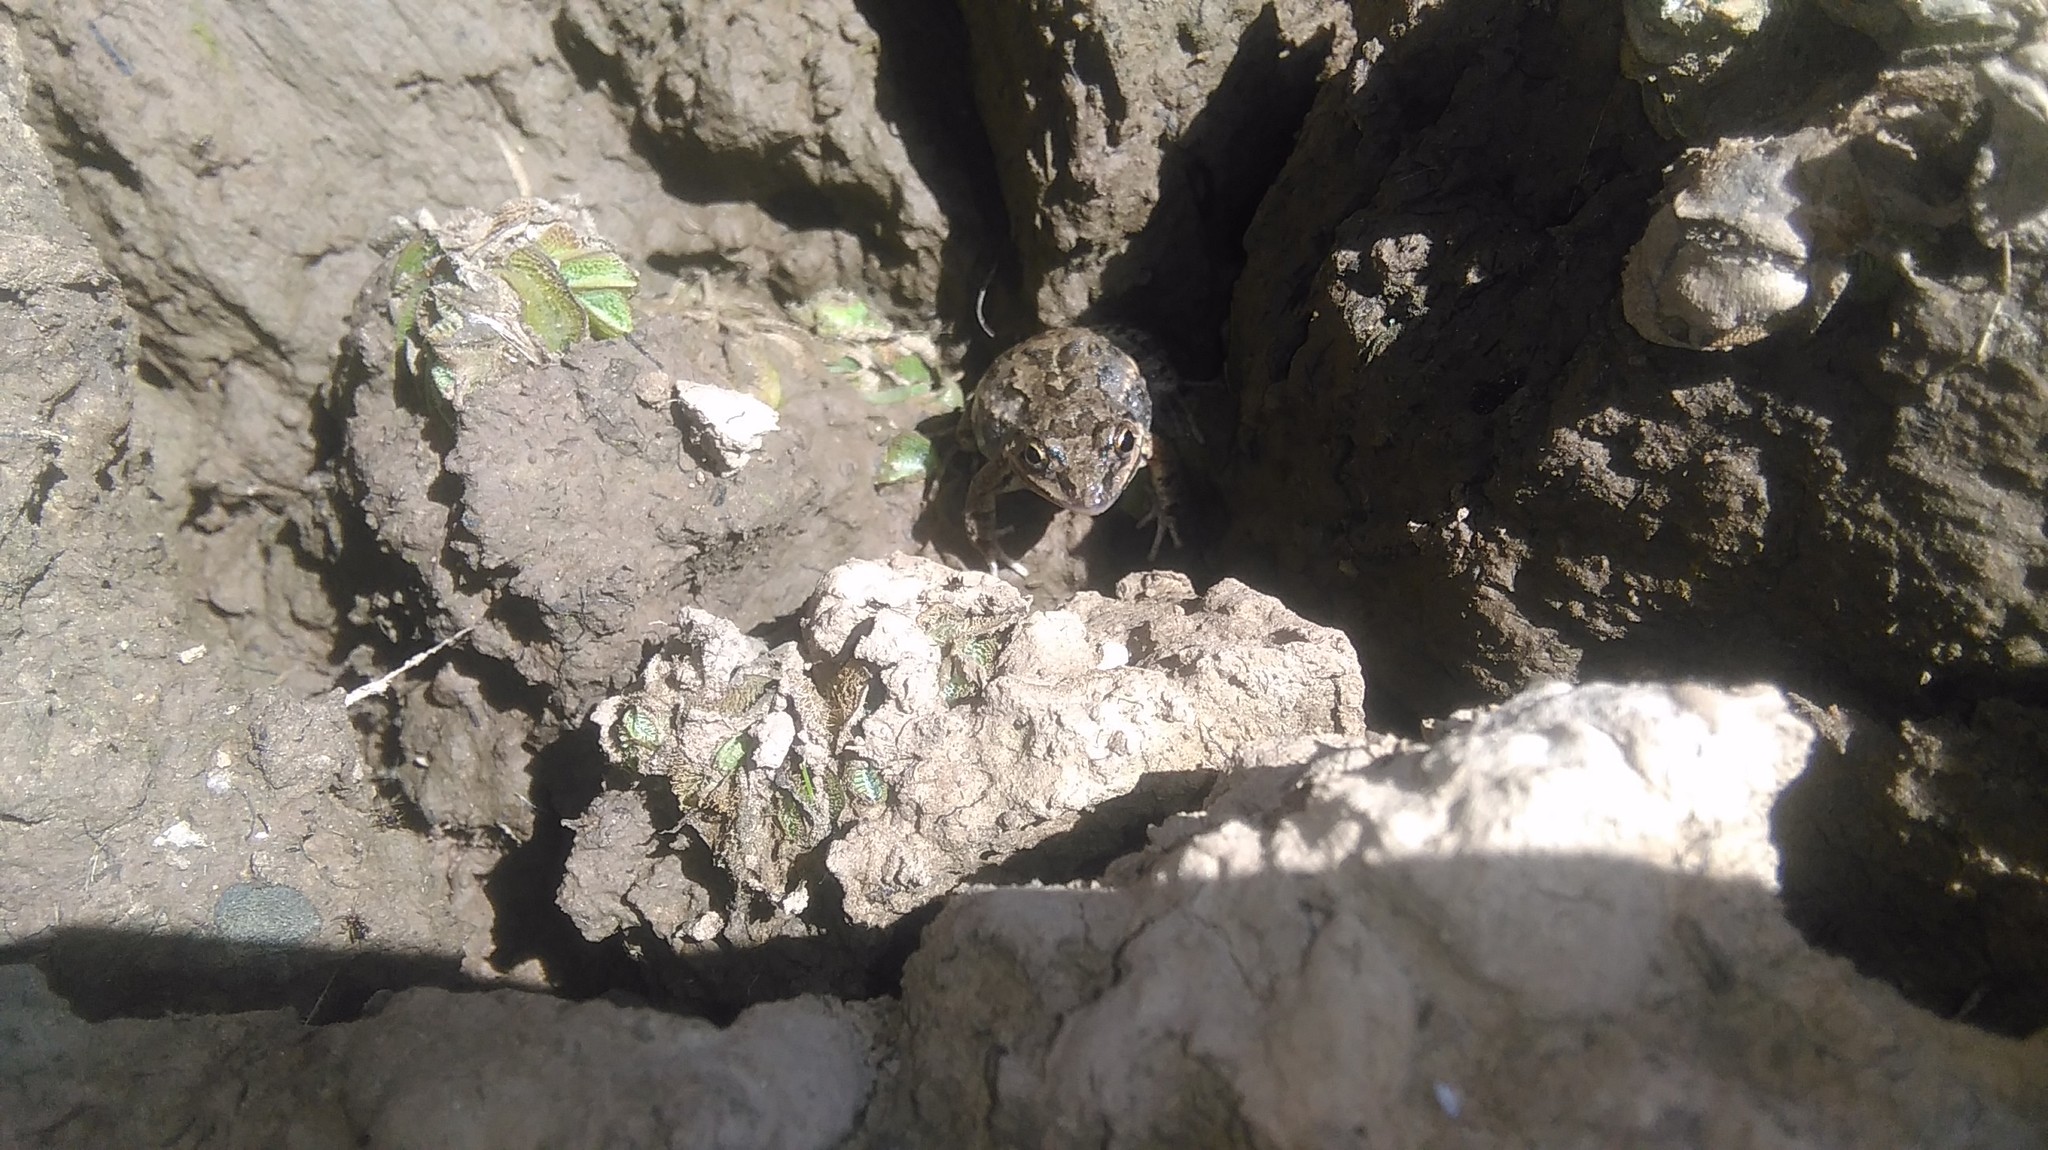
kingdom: Animalia
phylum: Chordata
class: Amphibia
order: Anura
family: Leptodactylidae
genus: Leptodactylus
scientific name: Leptodactylus latinasus
